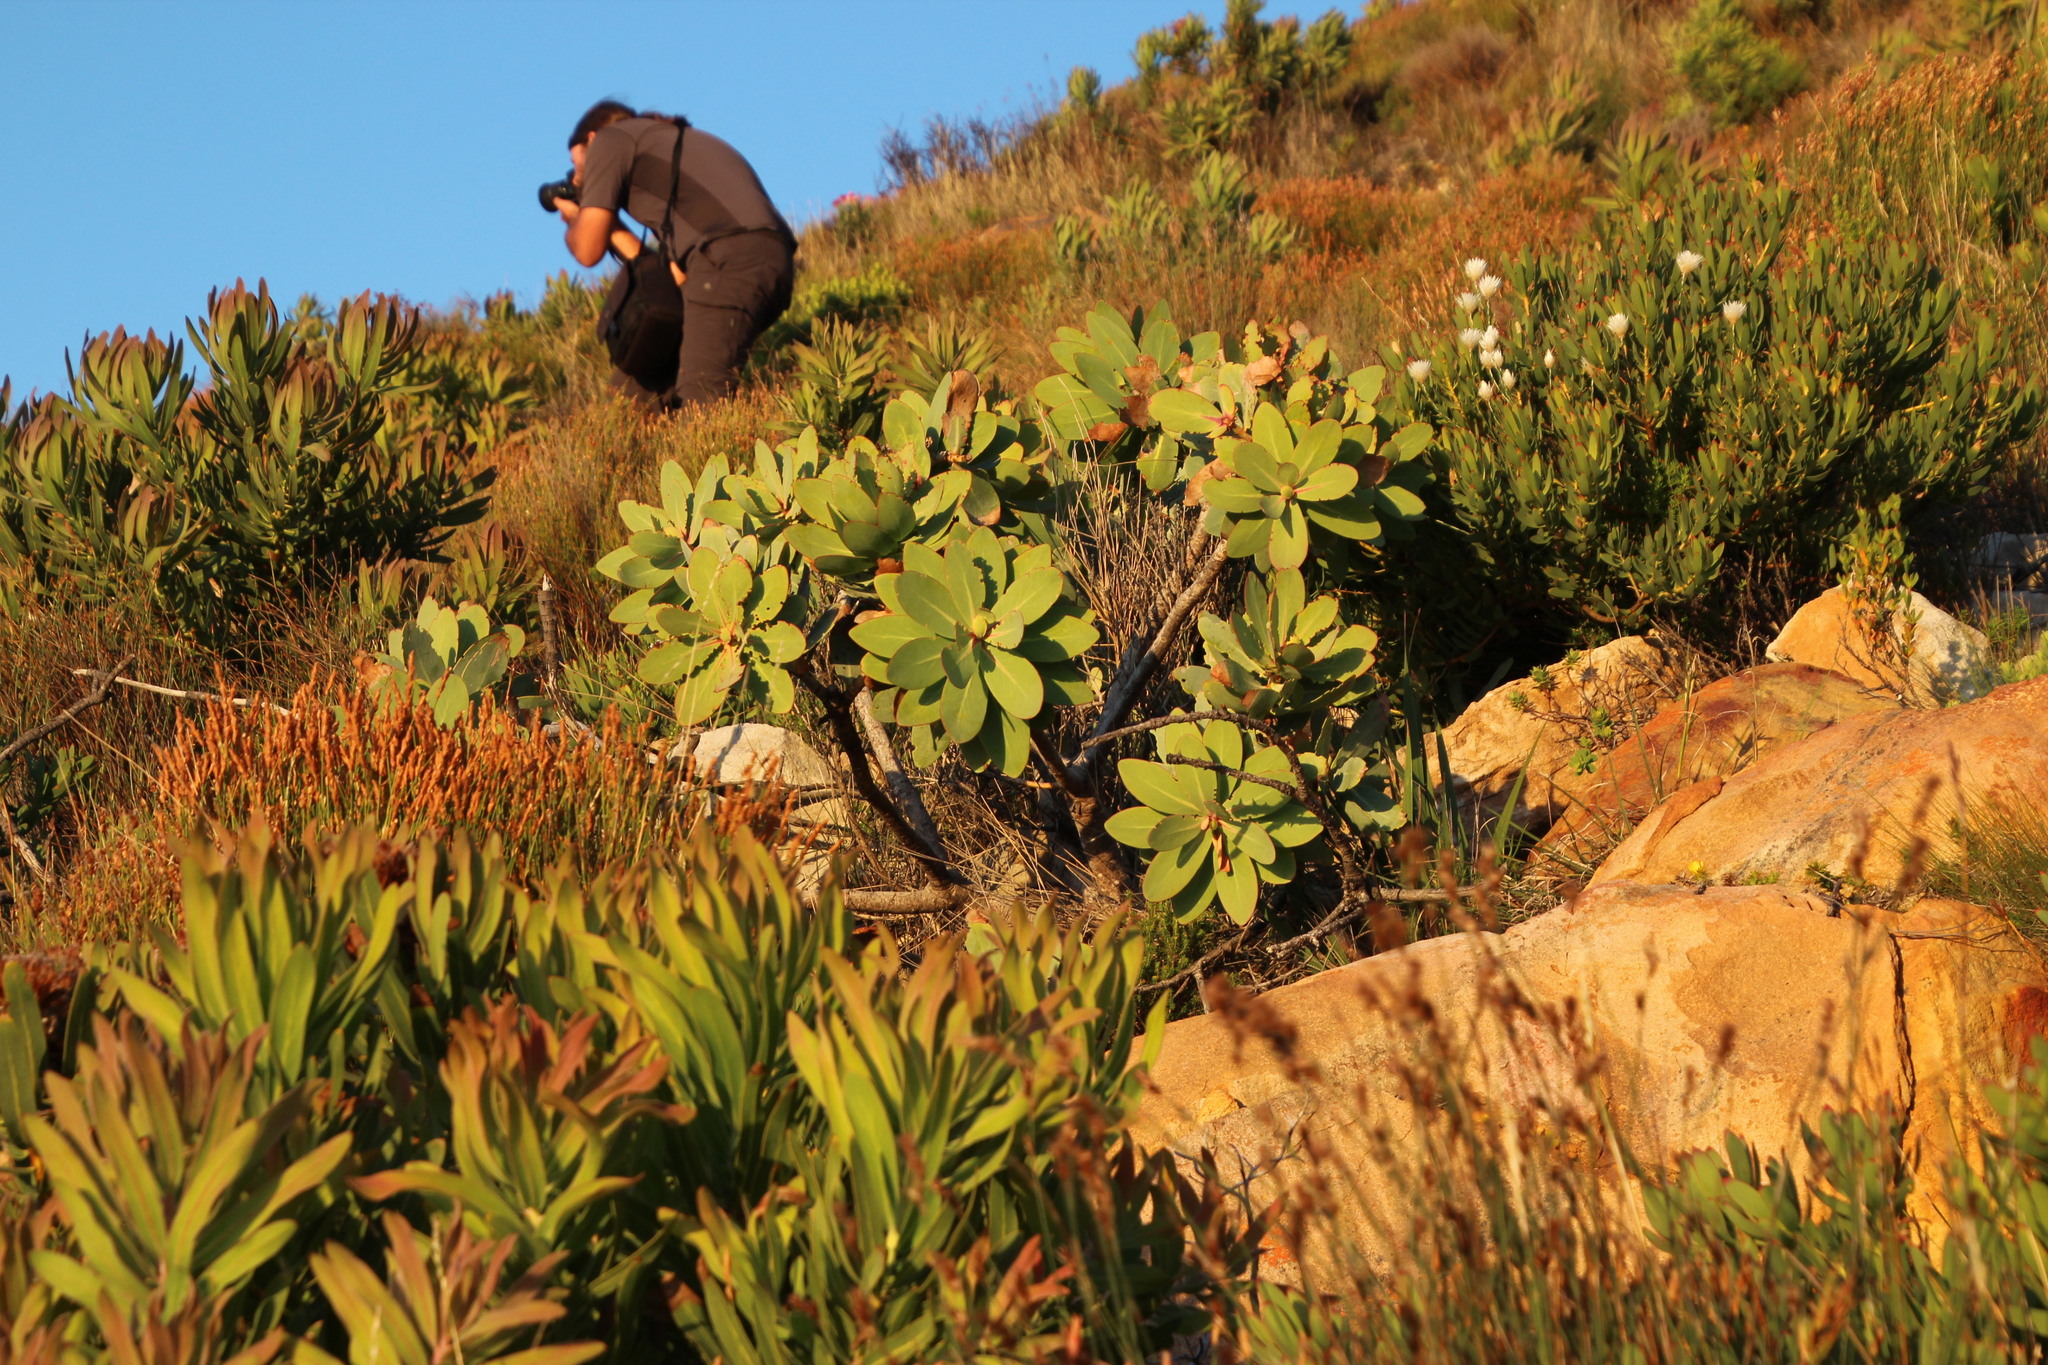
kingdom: Plantae
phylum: Tracheophyta
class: Magnoliopsida
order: Proteales
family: Proteaceae
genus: Protea
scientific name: Protea nitida
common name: Tree protea
